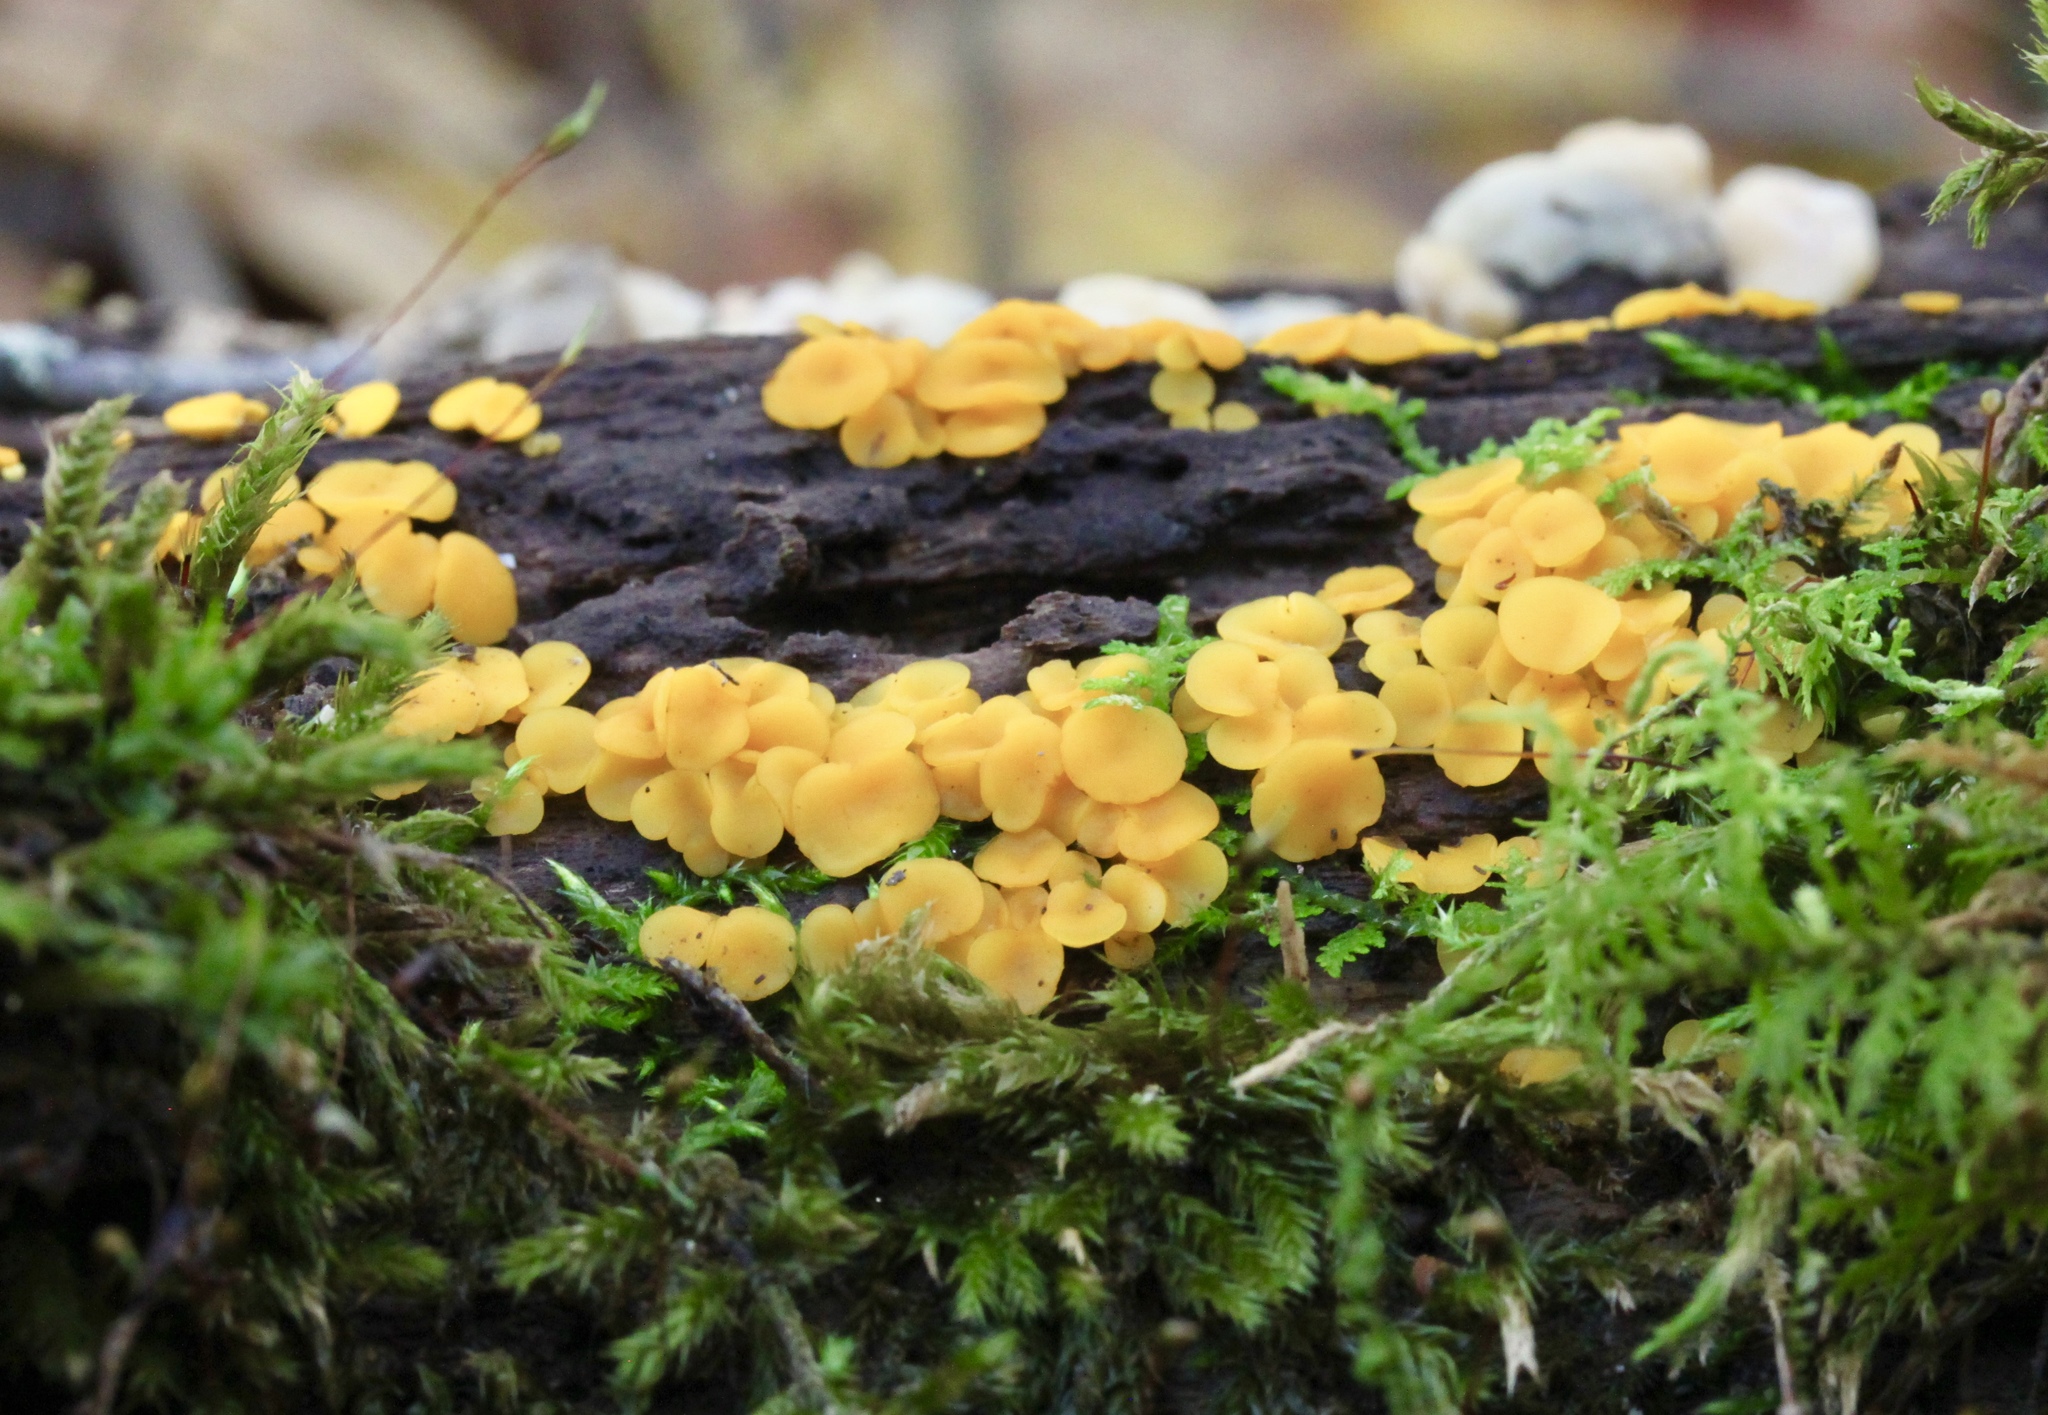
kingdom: Fungi
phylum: Ascomycota
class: Leotiomycetes
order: Helotiales
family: Pezizellaceae
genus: Calycina
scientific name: Calycina citrina
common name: Yellow fairy cups
